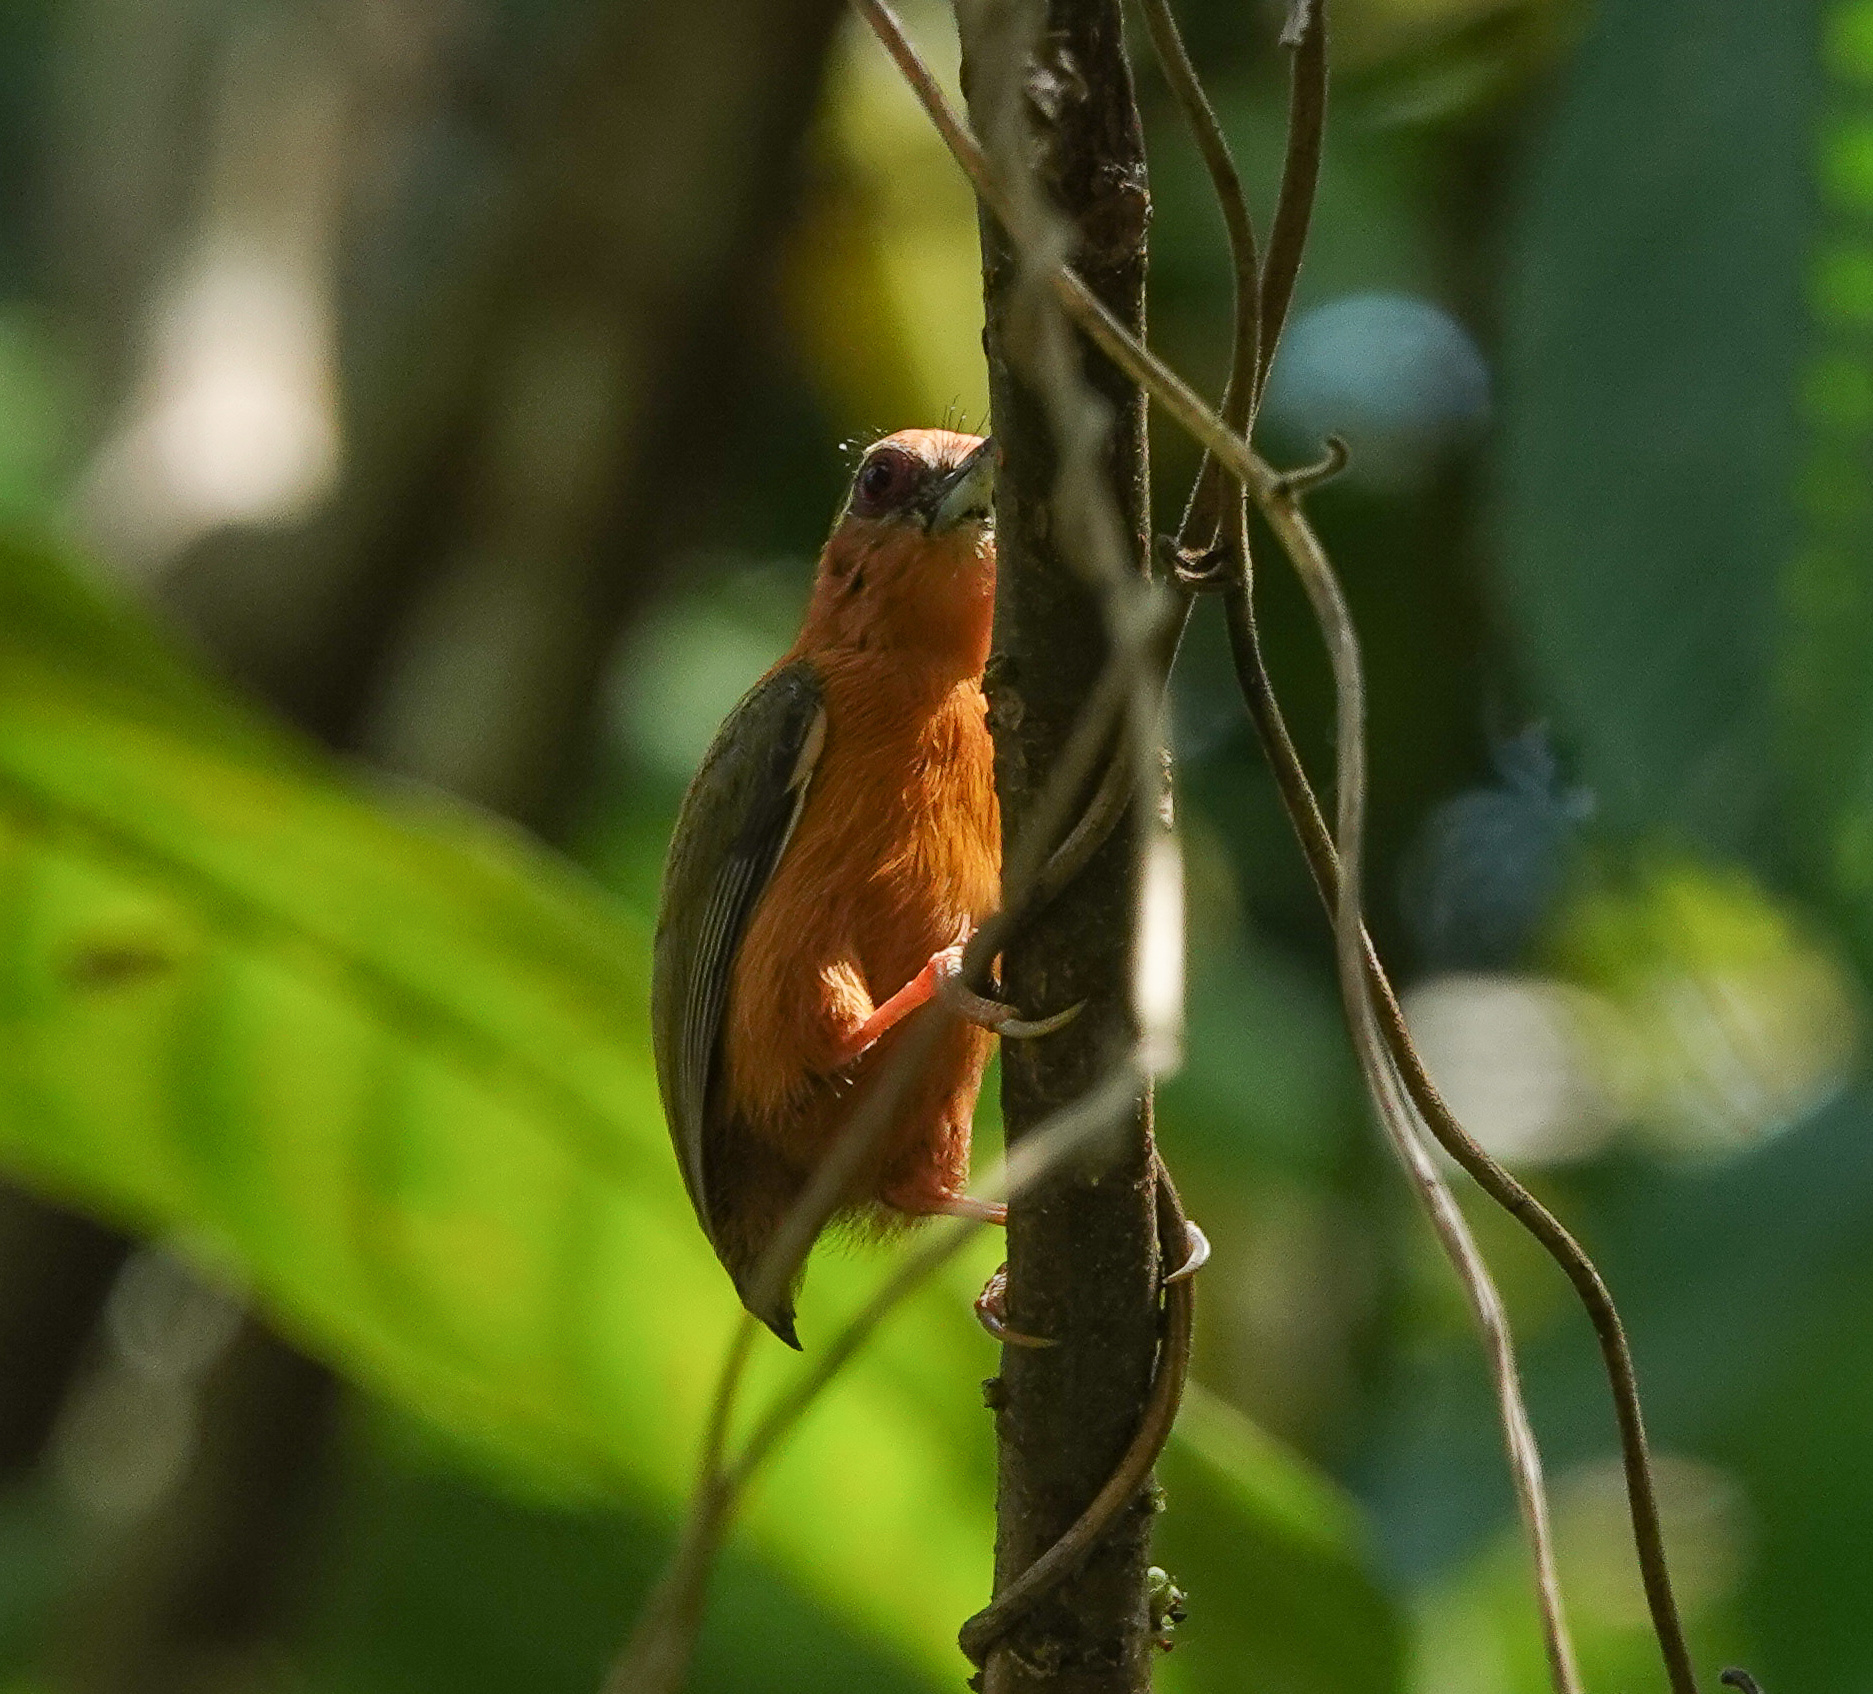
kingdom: Animalia
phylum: Chordata
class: Aves
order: Piciformes
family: Picidae
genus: Sasia
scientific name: Sasia ochracea
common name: White-browed piculet
